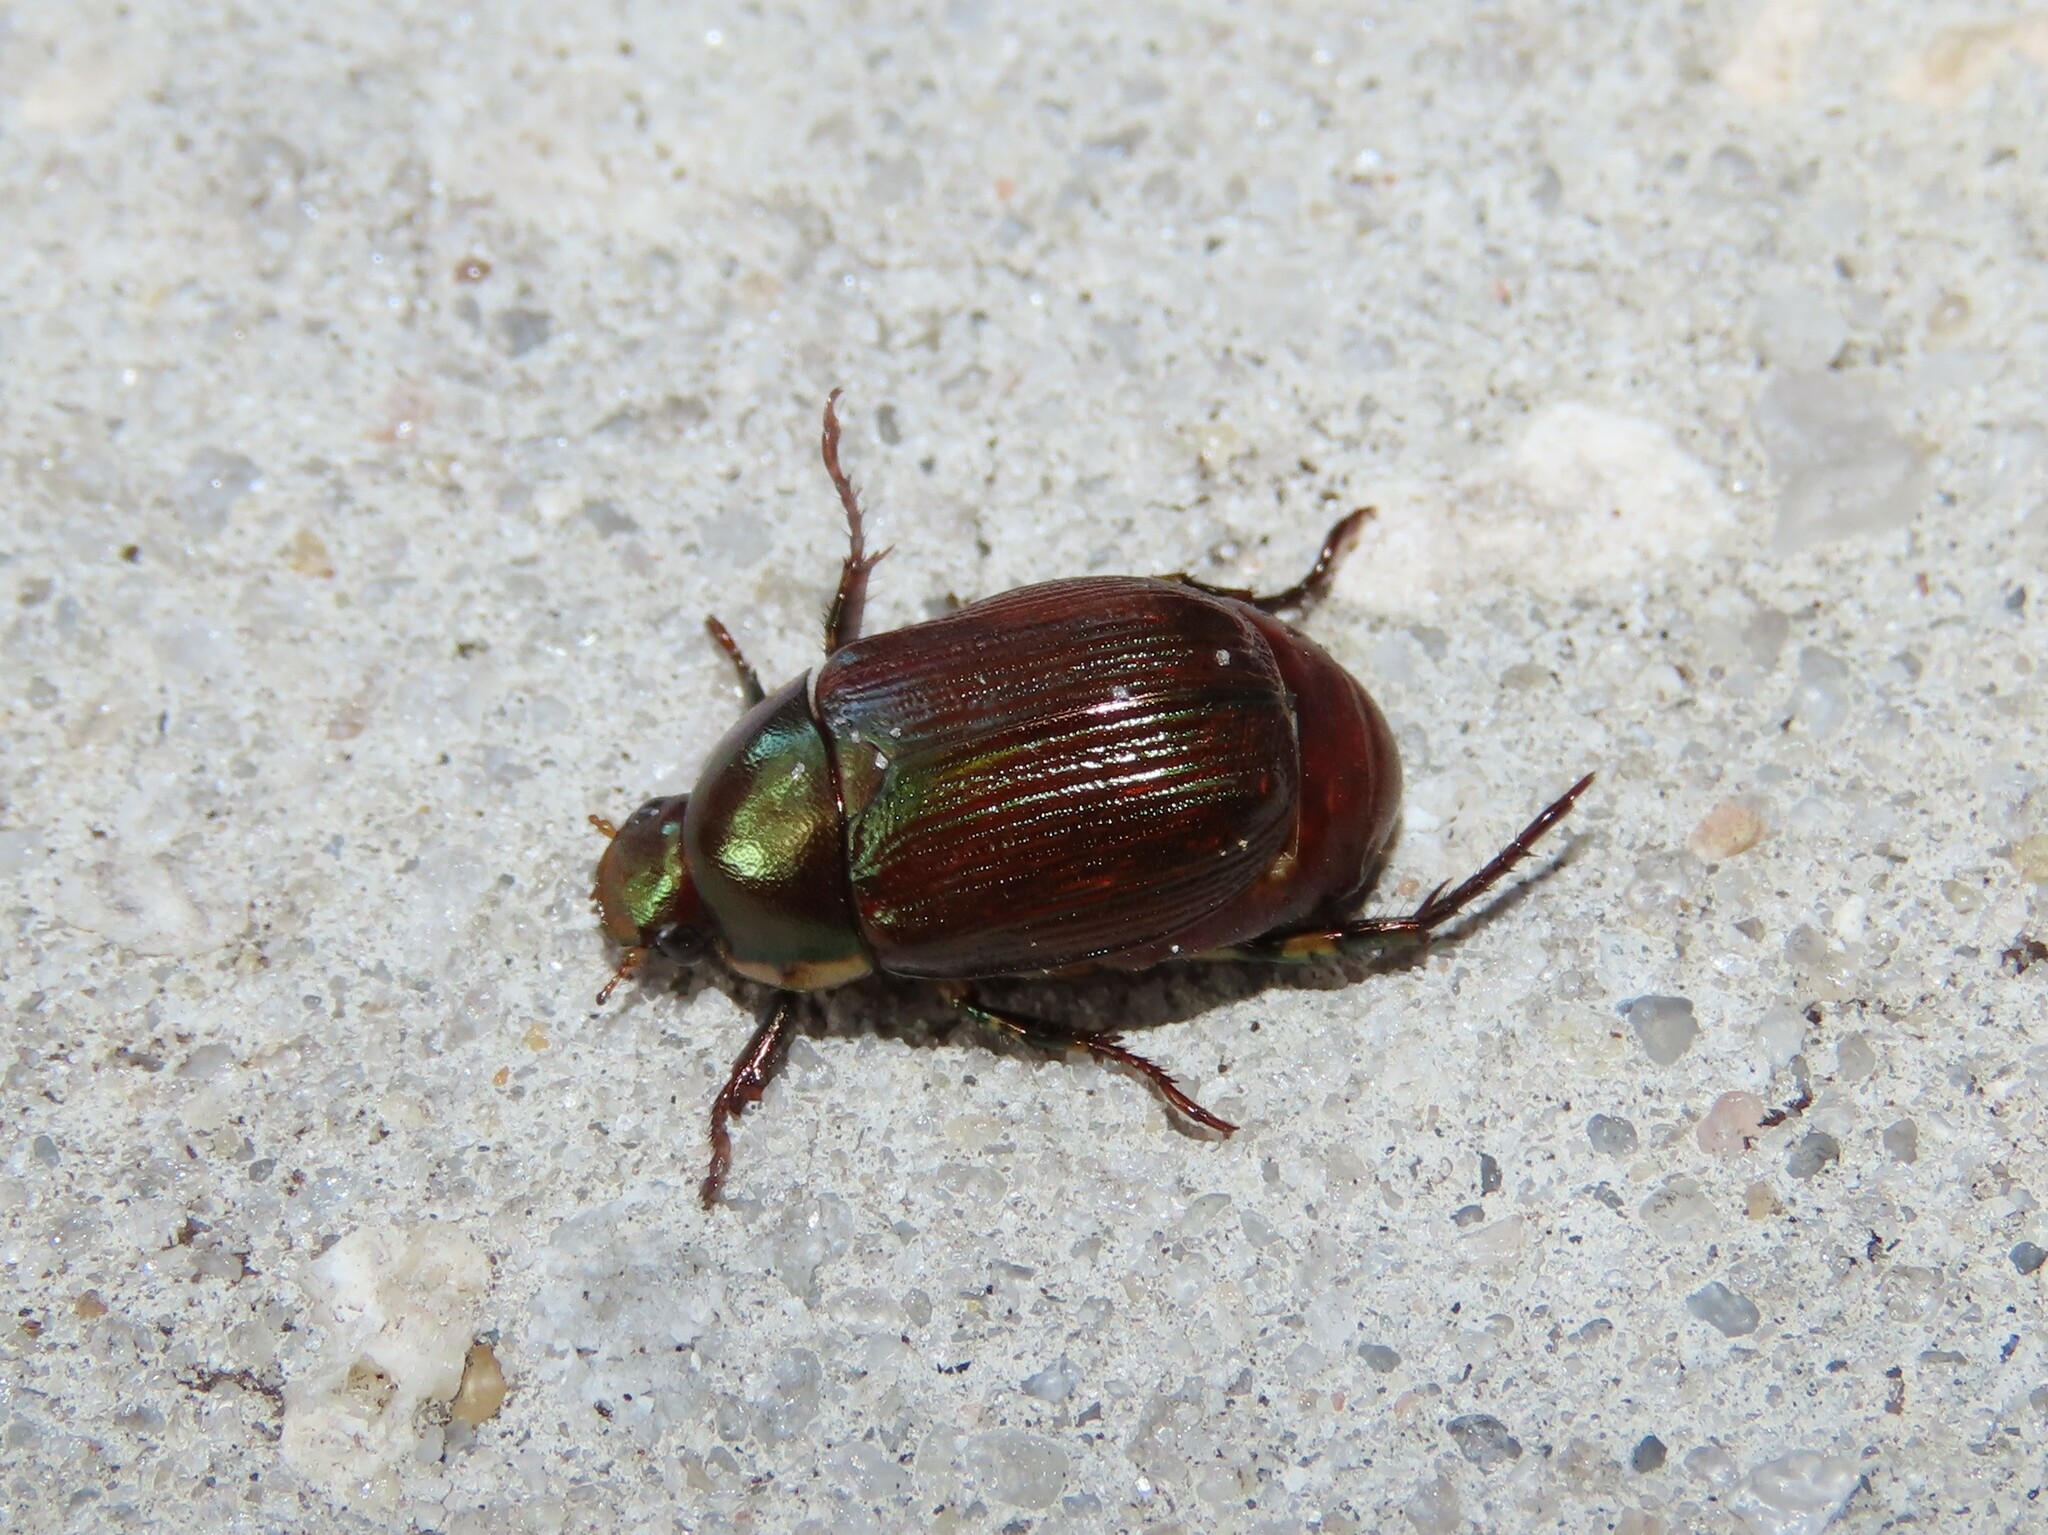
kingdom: Animalia
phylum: Arthropoda
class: Insecta
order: Coleoptera
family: Scarabaeidae
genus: Callistethus
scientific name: Callistethus marginatus
